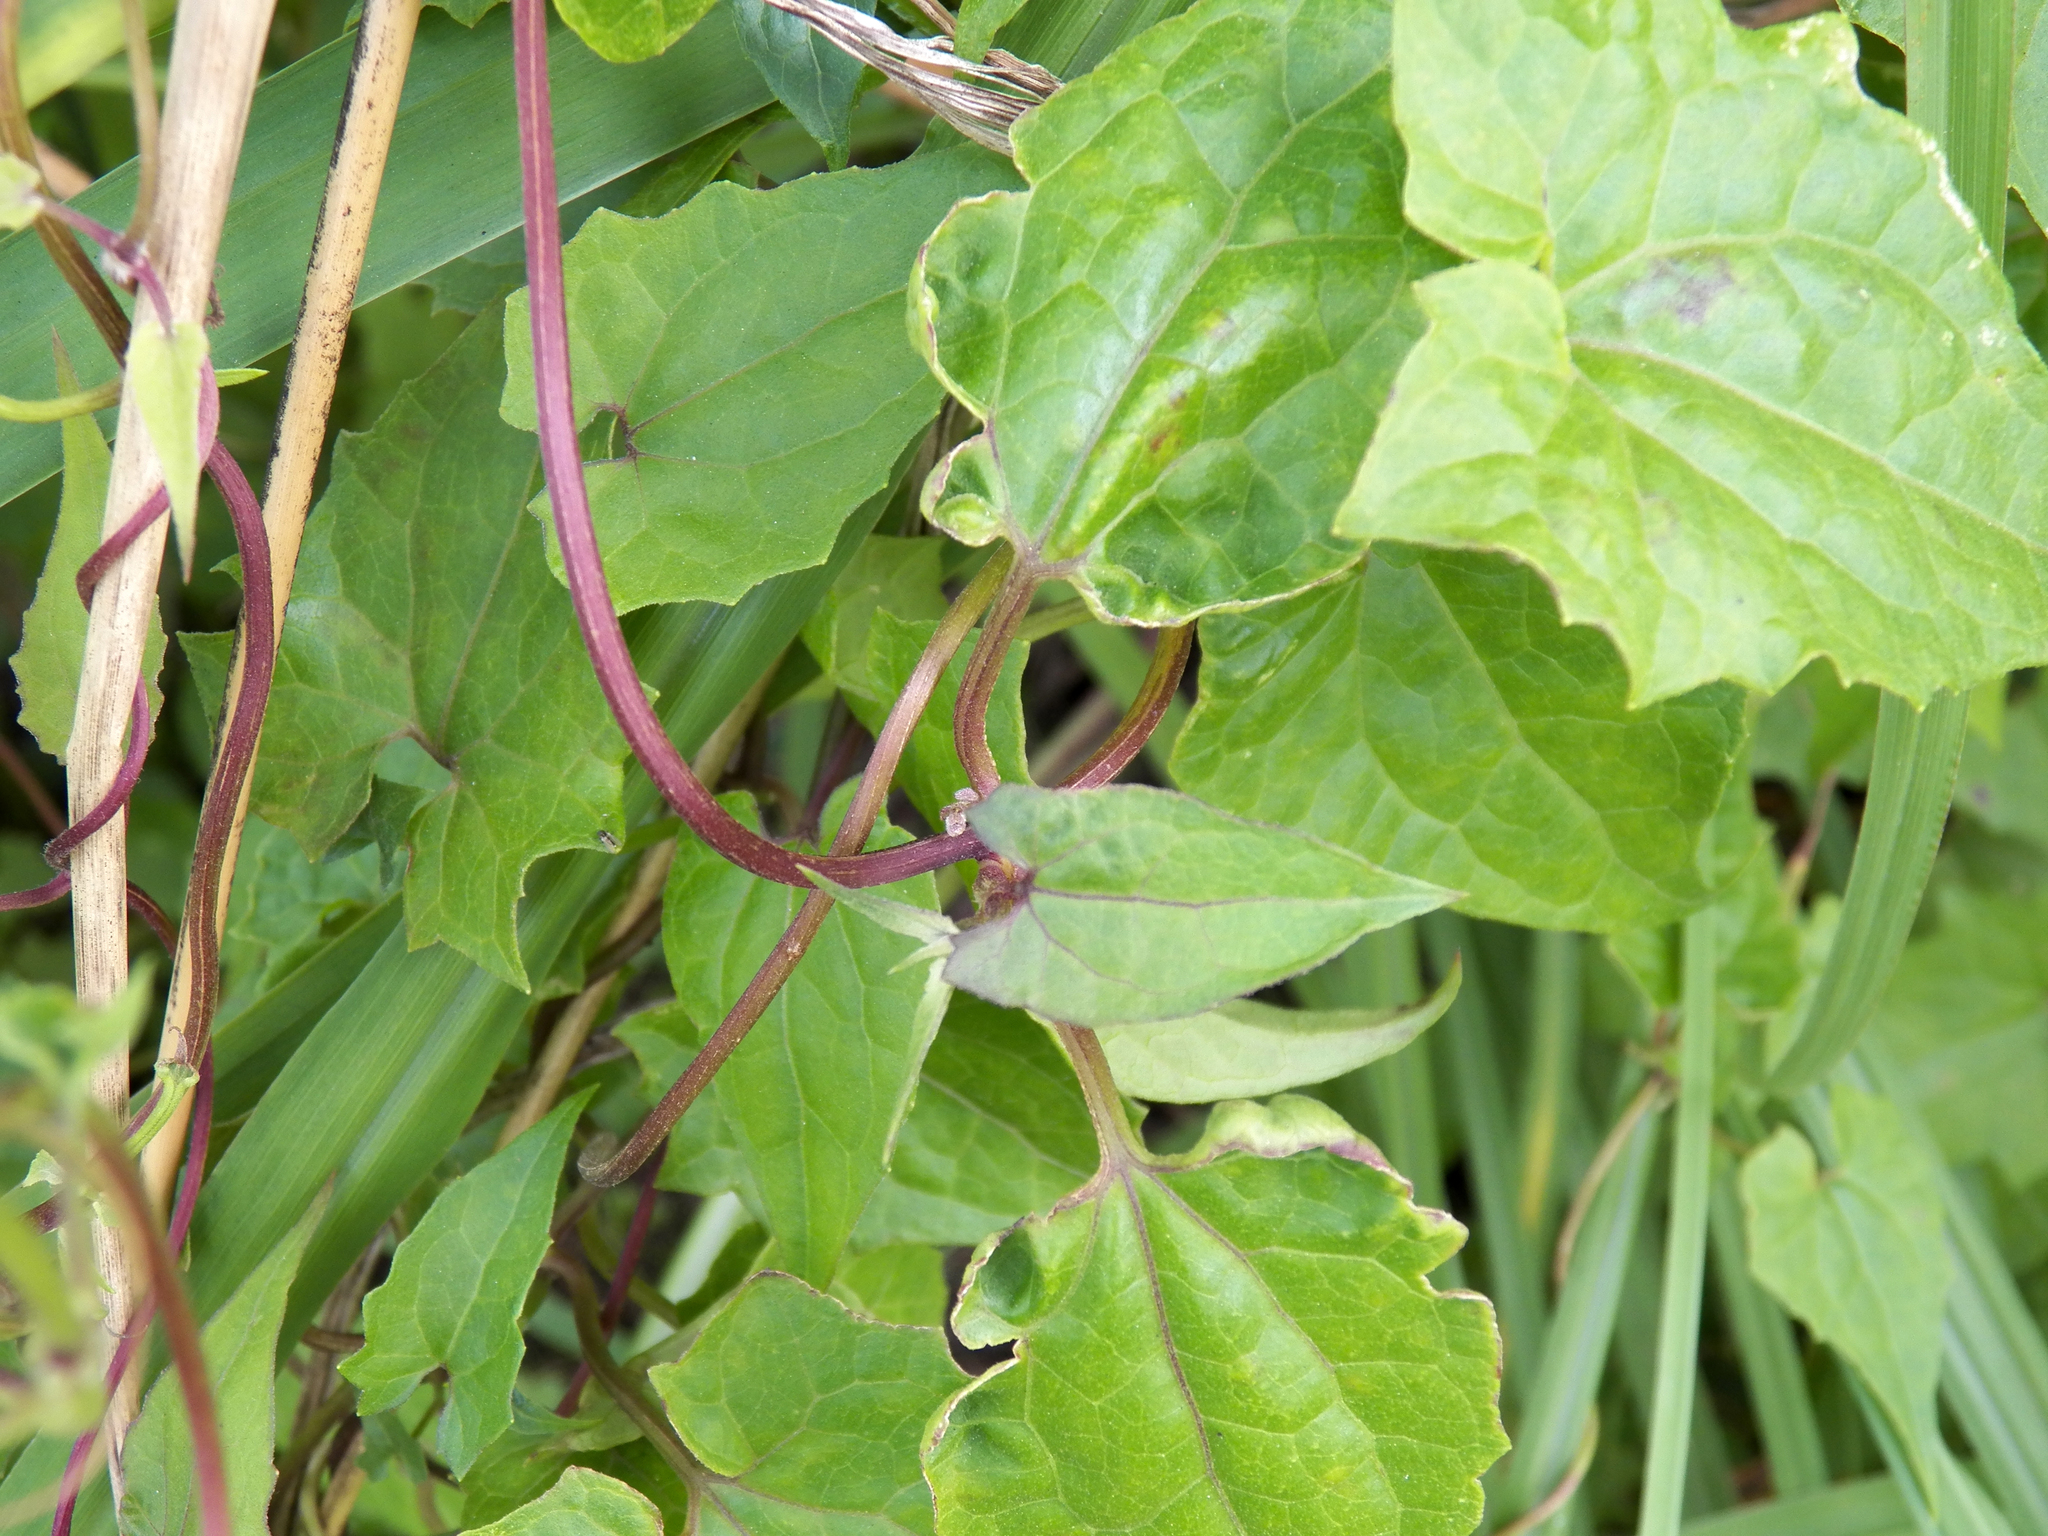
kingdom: Plantae
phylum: Tracheophyta
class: Magnoliopsida
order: Asterales
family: Asteraceae
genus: Mikania
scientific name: Mikania scandens
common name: Climbing hempvine
